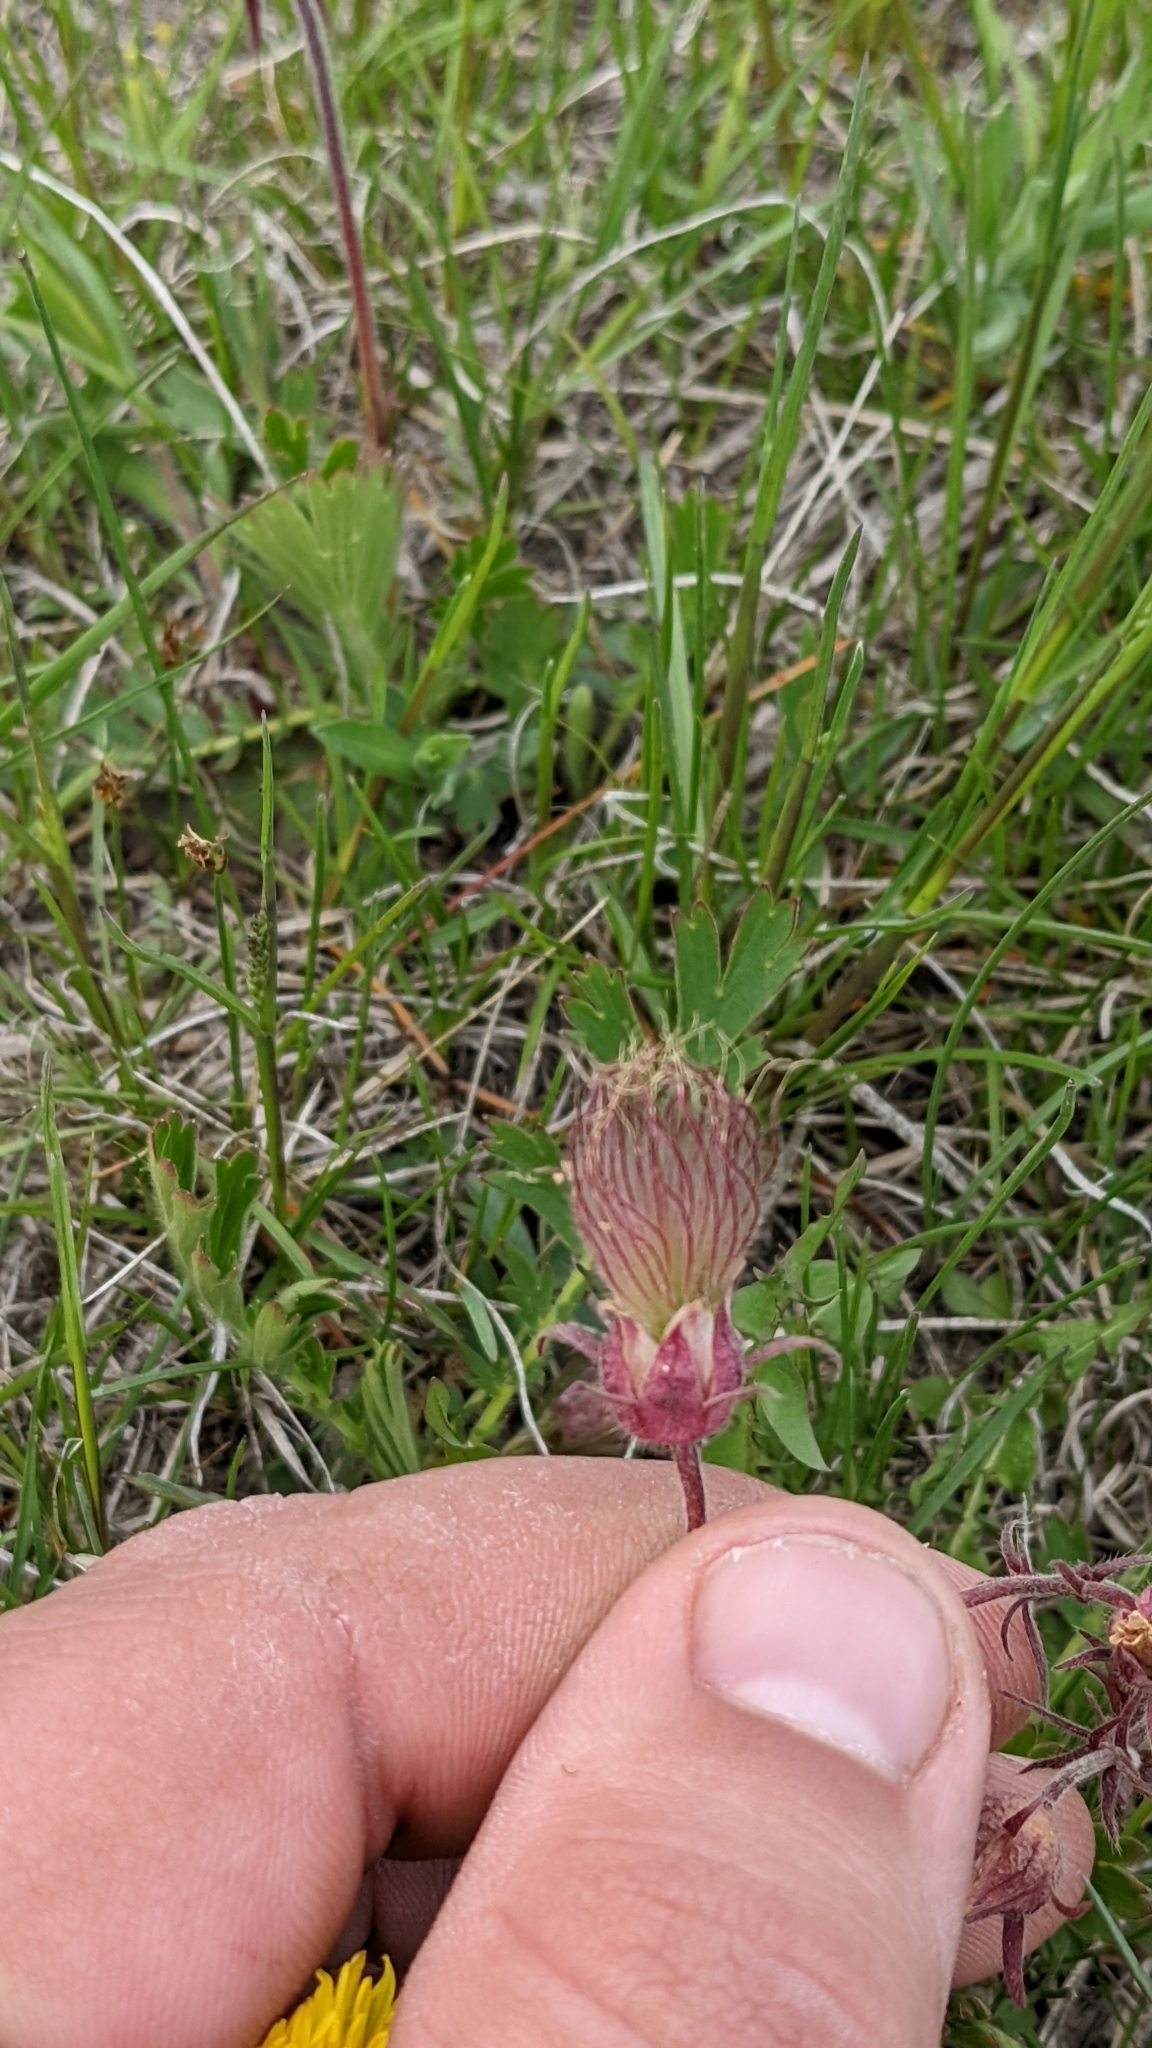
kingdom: Plantae
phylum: Tracheophyta
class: Magnoliopsida
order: Rosales
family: Rosaceae
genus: Geum
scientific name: Geum triflorum
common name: Old man's whiskers
